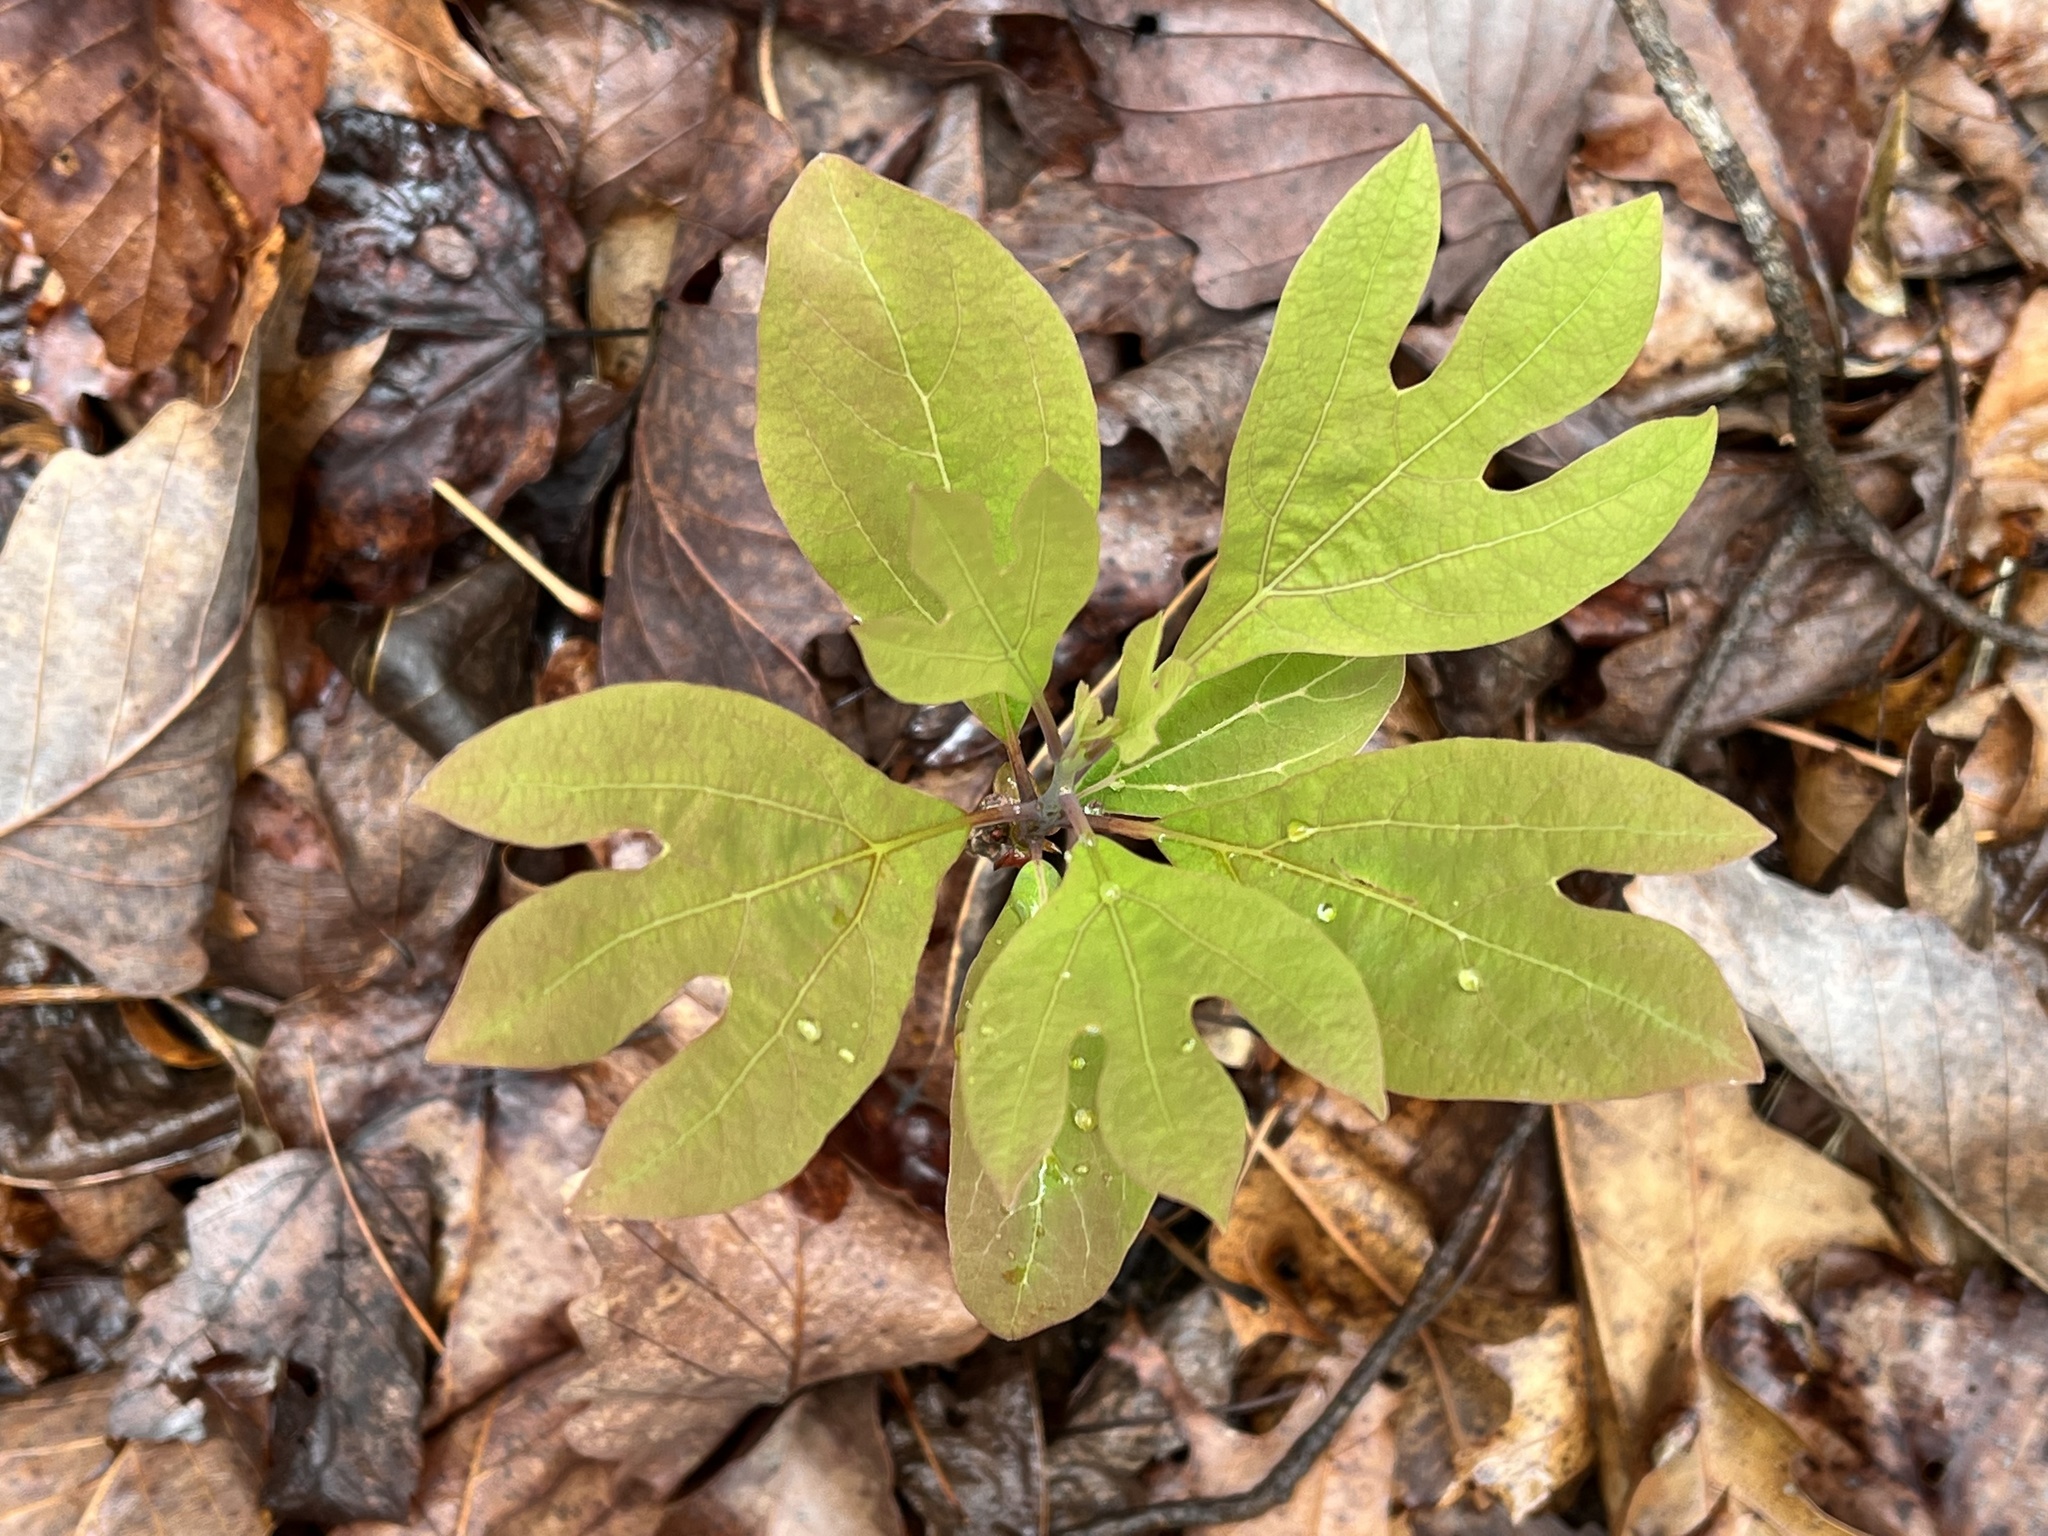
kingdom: Plantae
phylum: Tracheophyta
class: Magnoliopsida
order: Laurales
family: Lauraceae
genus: Sassafras
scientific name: Sassafras albidum
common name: Sassafras
